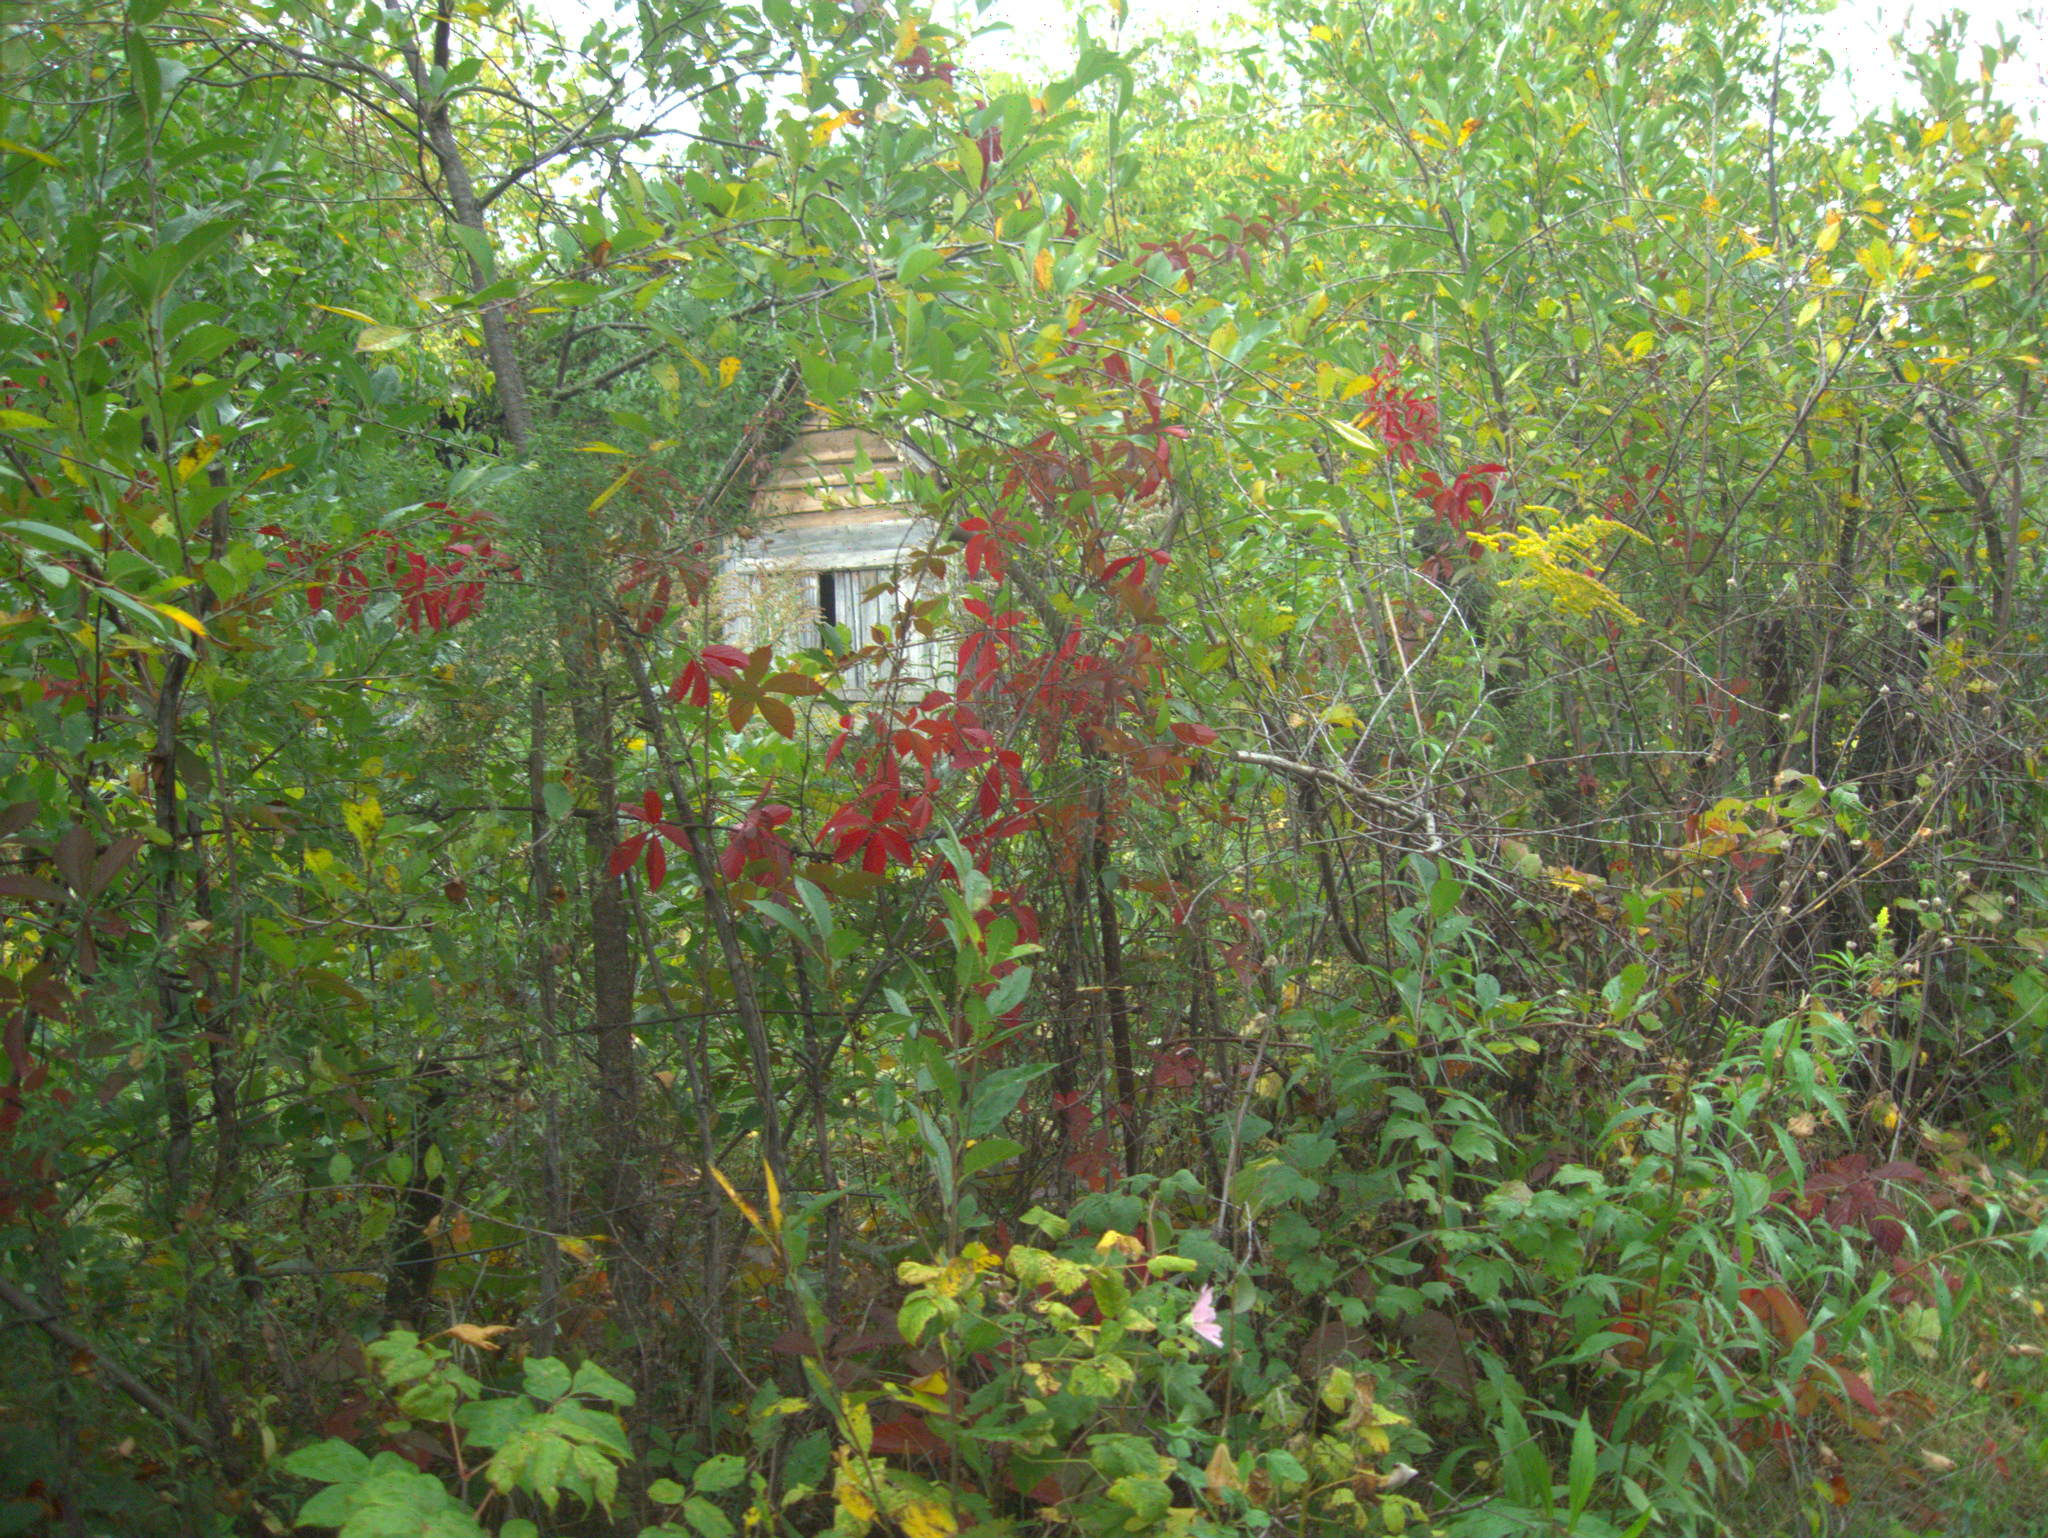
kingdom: Plantae
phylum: Tracheophyta
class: Magnoliopsida
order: Malvales
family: Malvaceae
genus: Malva
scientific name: Malva thuringiaca
